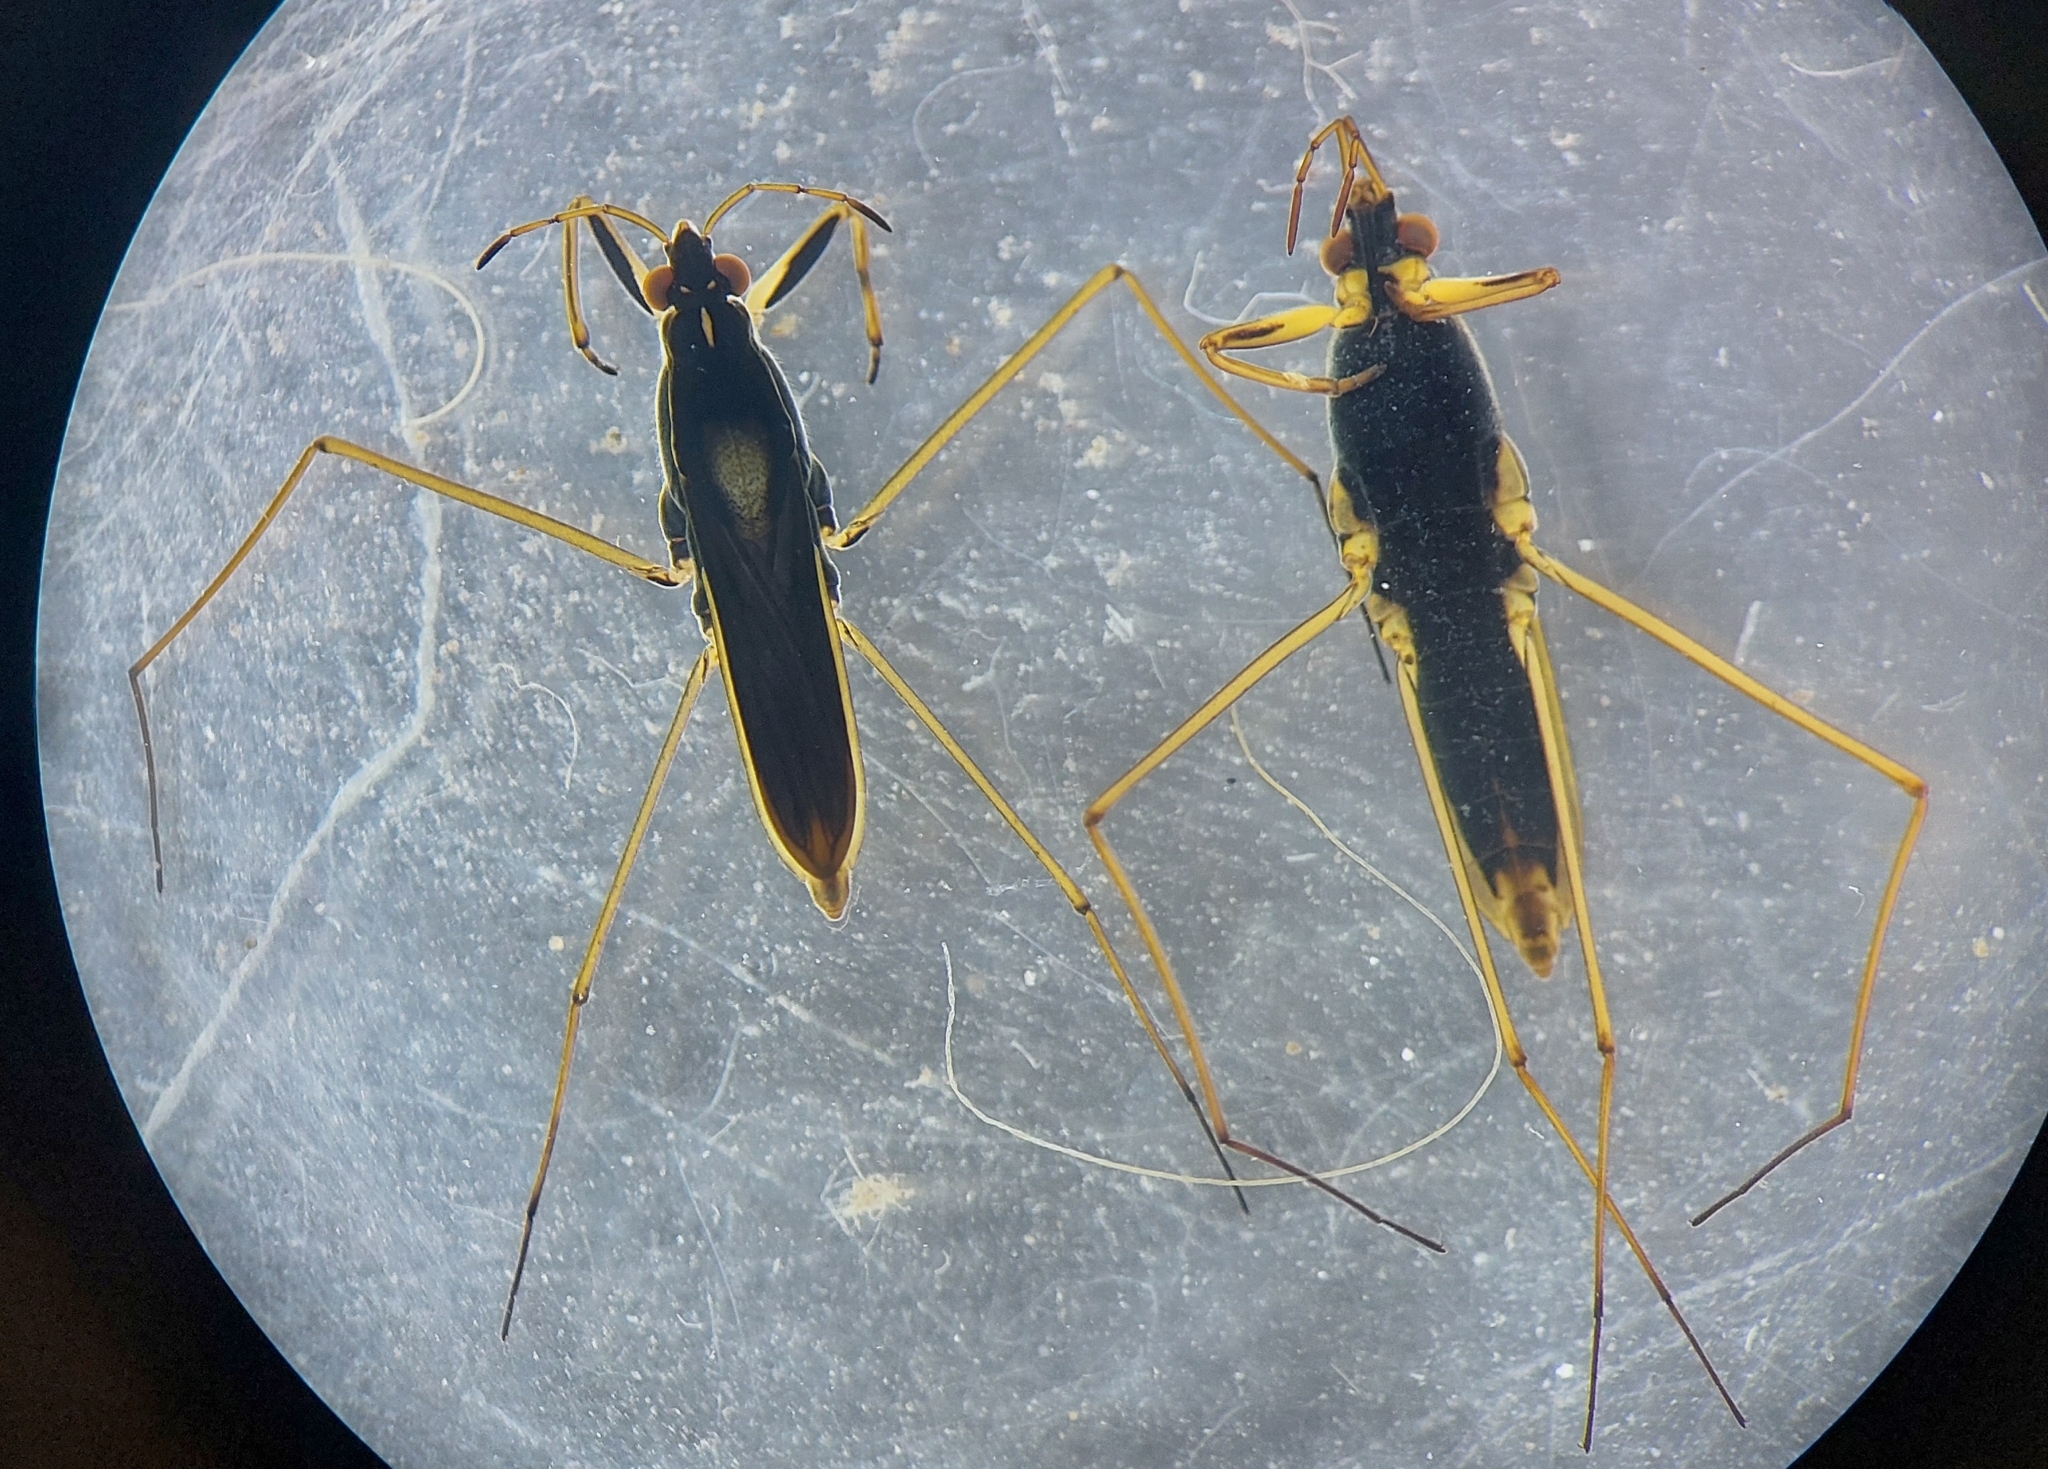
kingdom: Animalia
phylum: Arthropoda
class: Insecta
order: Hemiptera
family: Gerridae
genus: Gerris
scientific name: Gerris thoracicus
